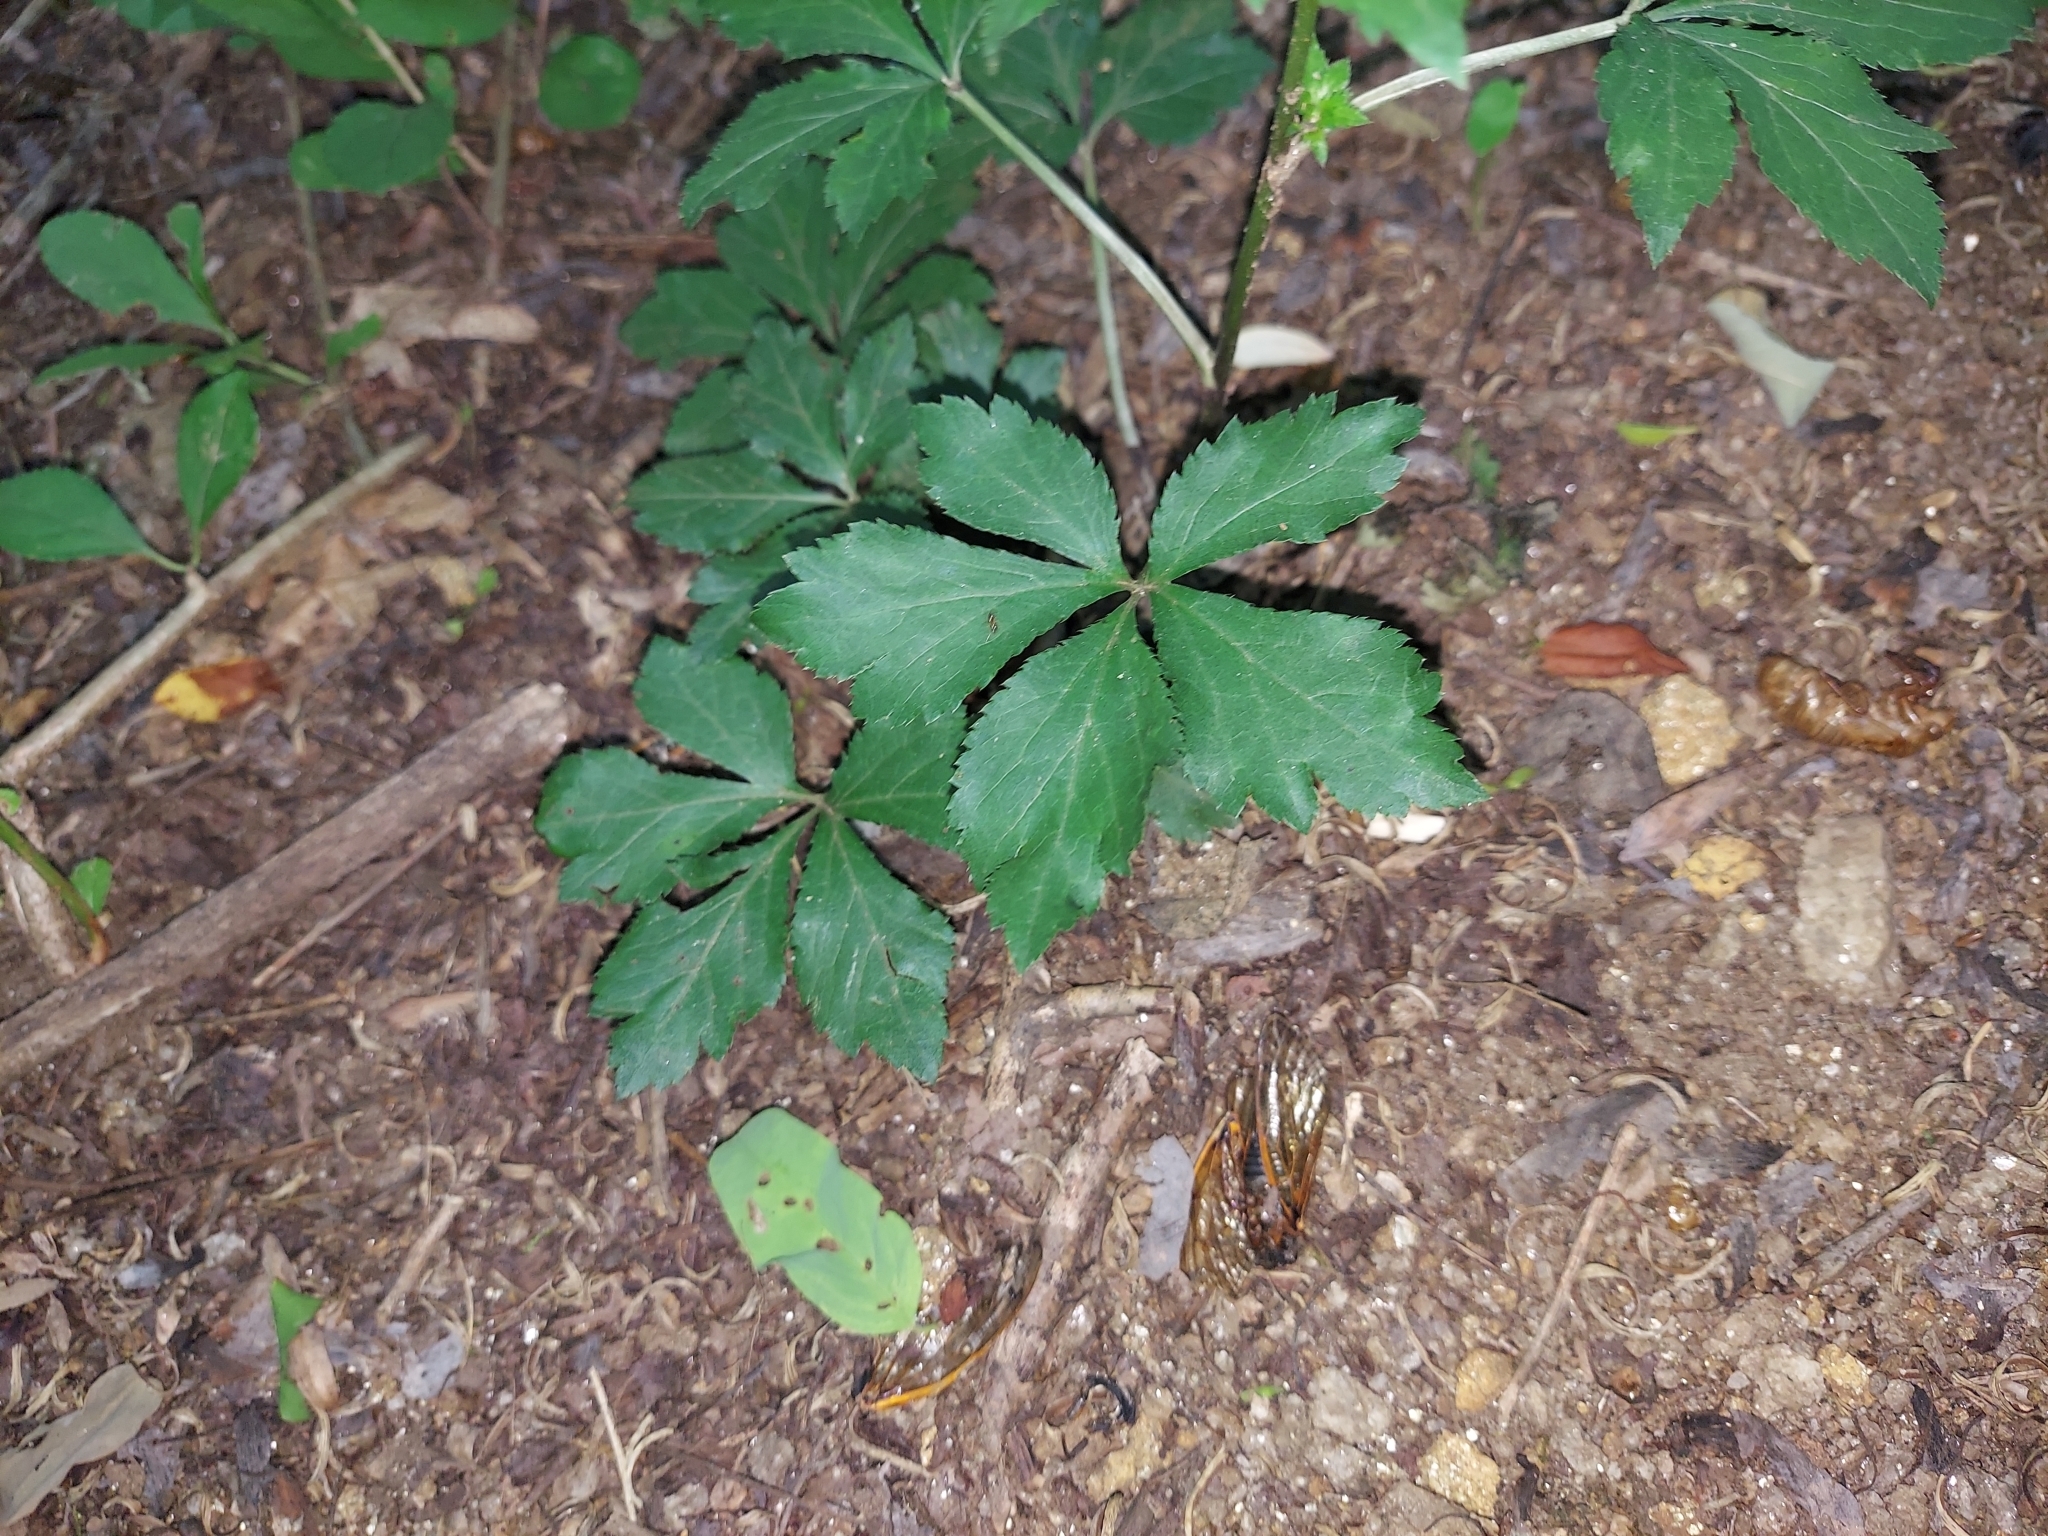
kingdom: Plantae
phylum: Tracheophyta
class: Magnoliopsida
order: Apiales
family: Apiaceae
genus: Sanicula
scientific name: Sanicula canadensis
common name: Canada sanicle
